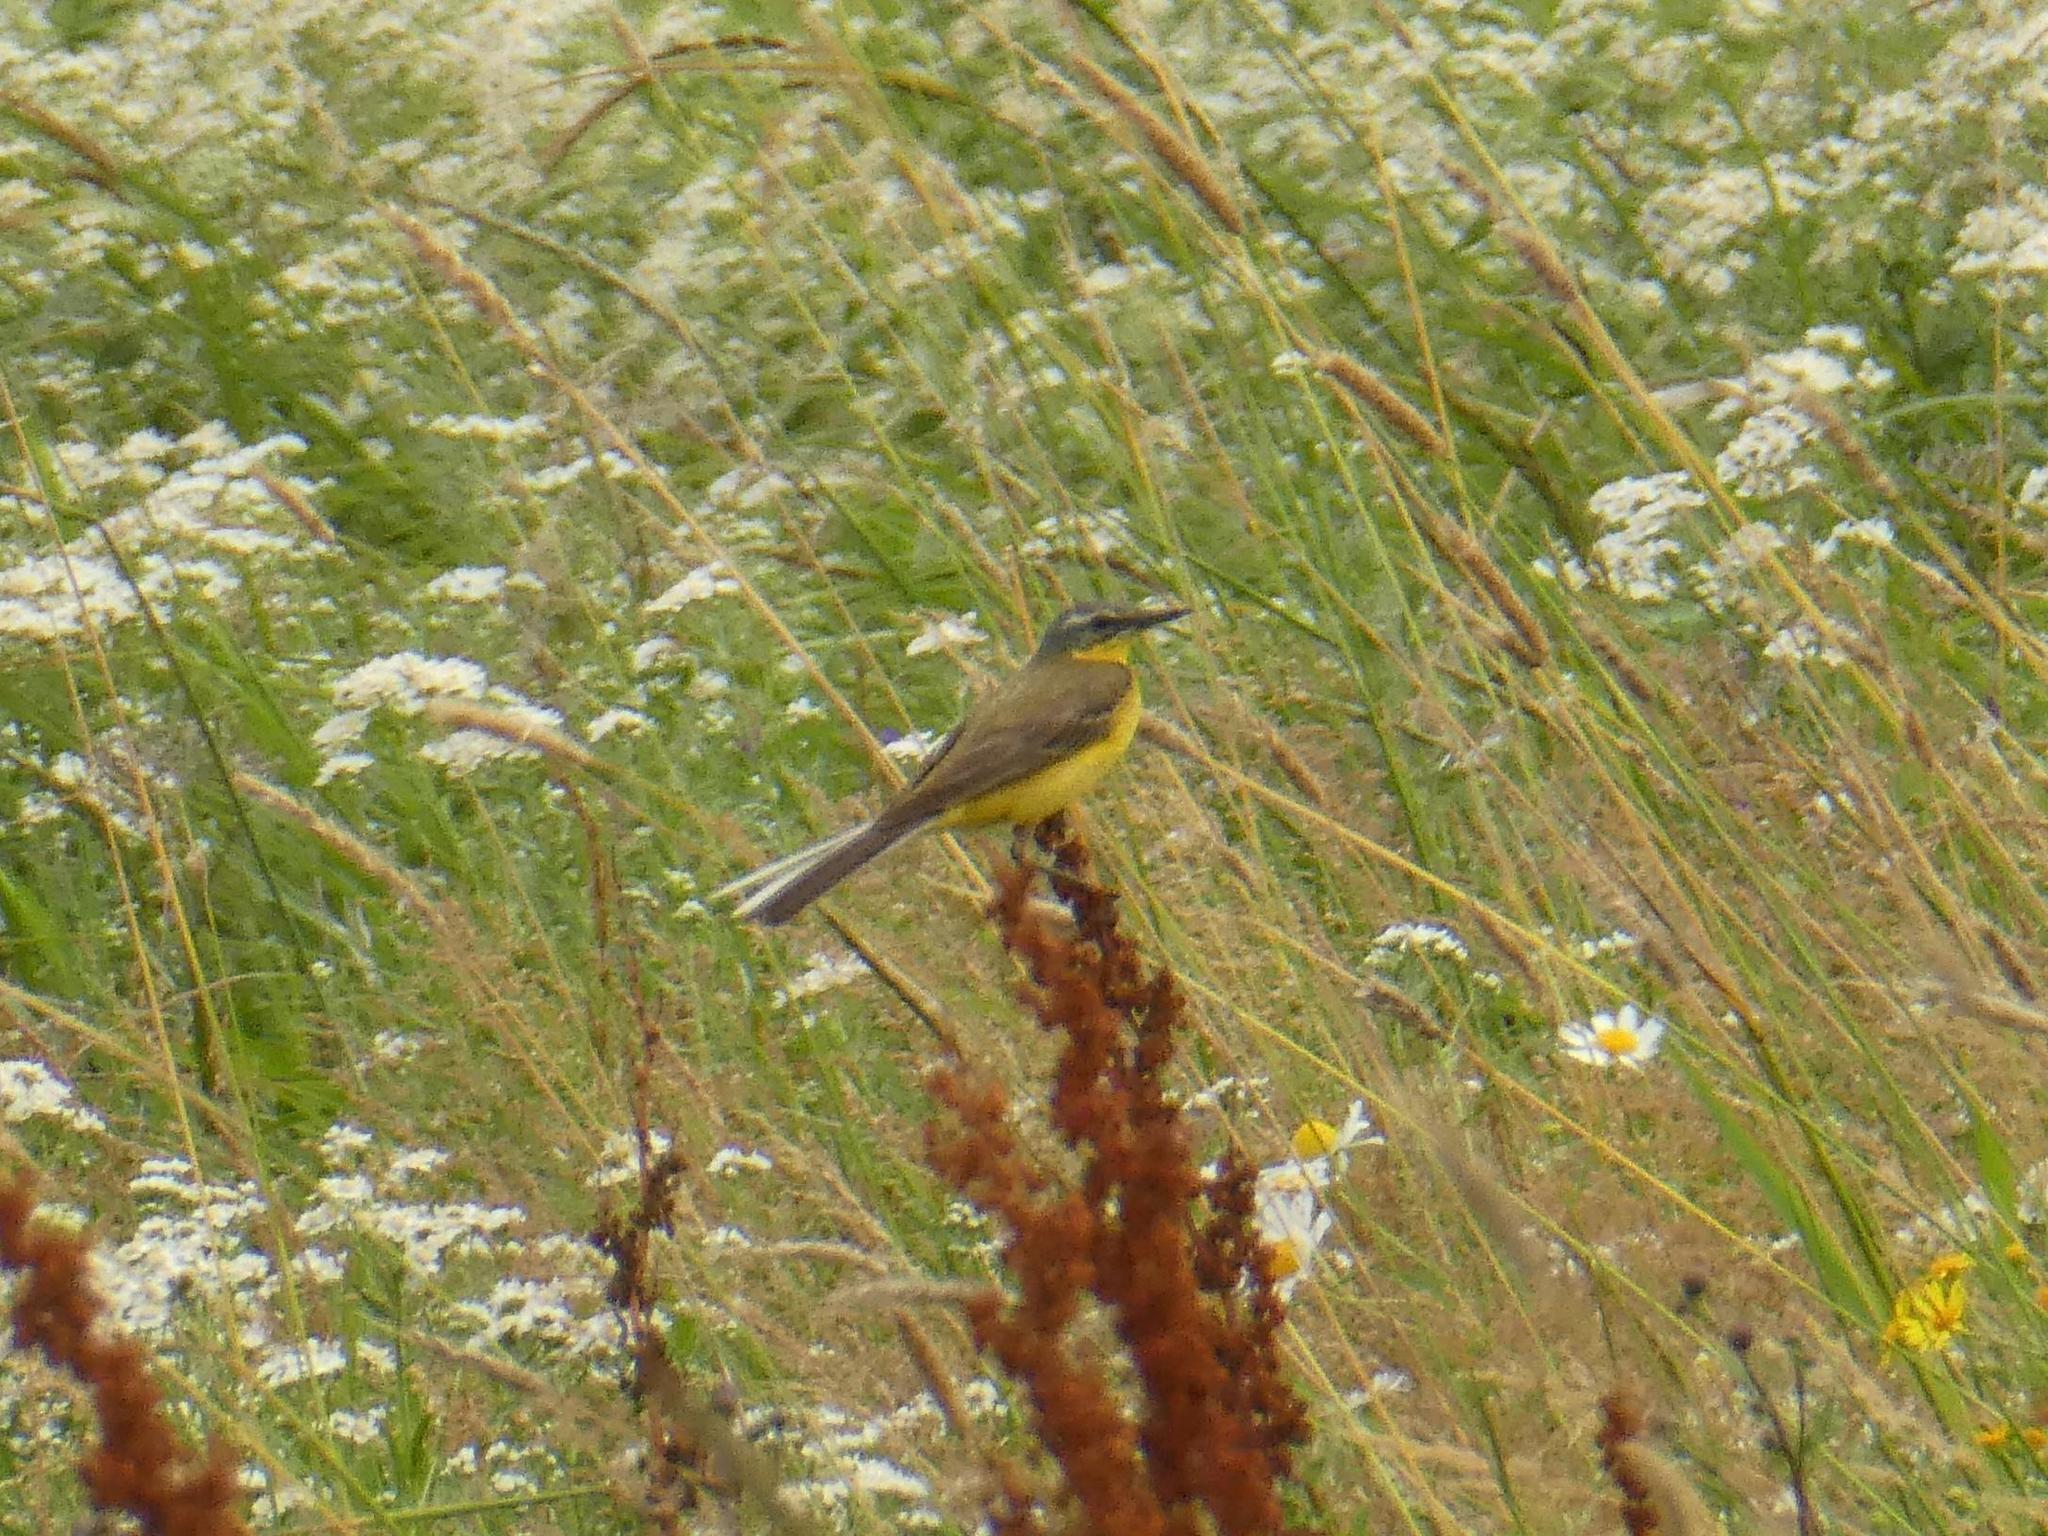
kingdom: Animalia
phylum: Chordata
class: Aves
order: Passeriformes
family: Motacillidae
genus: Motacilla
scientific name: Motacilla flava
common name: Western yellow wagtail
